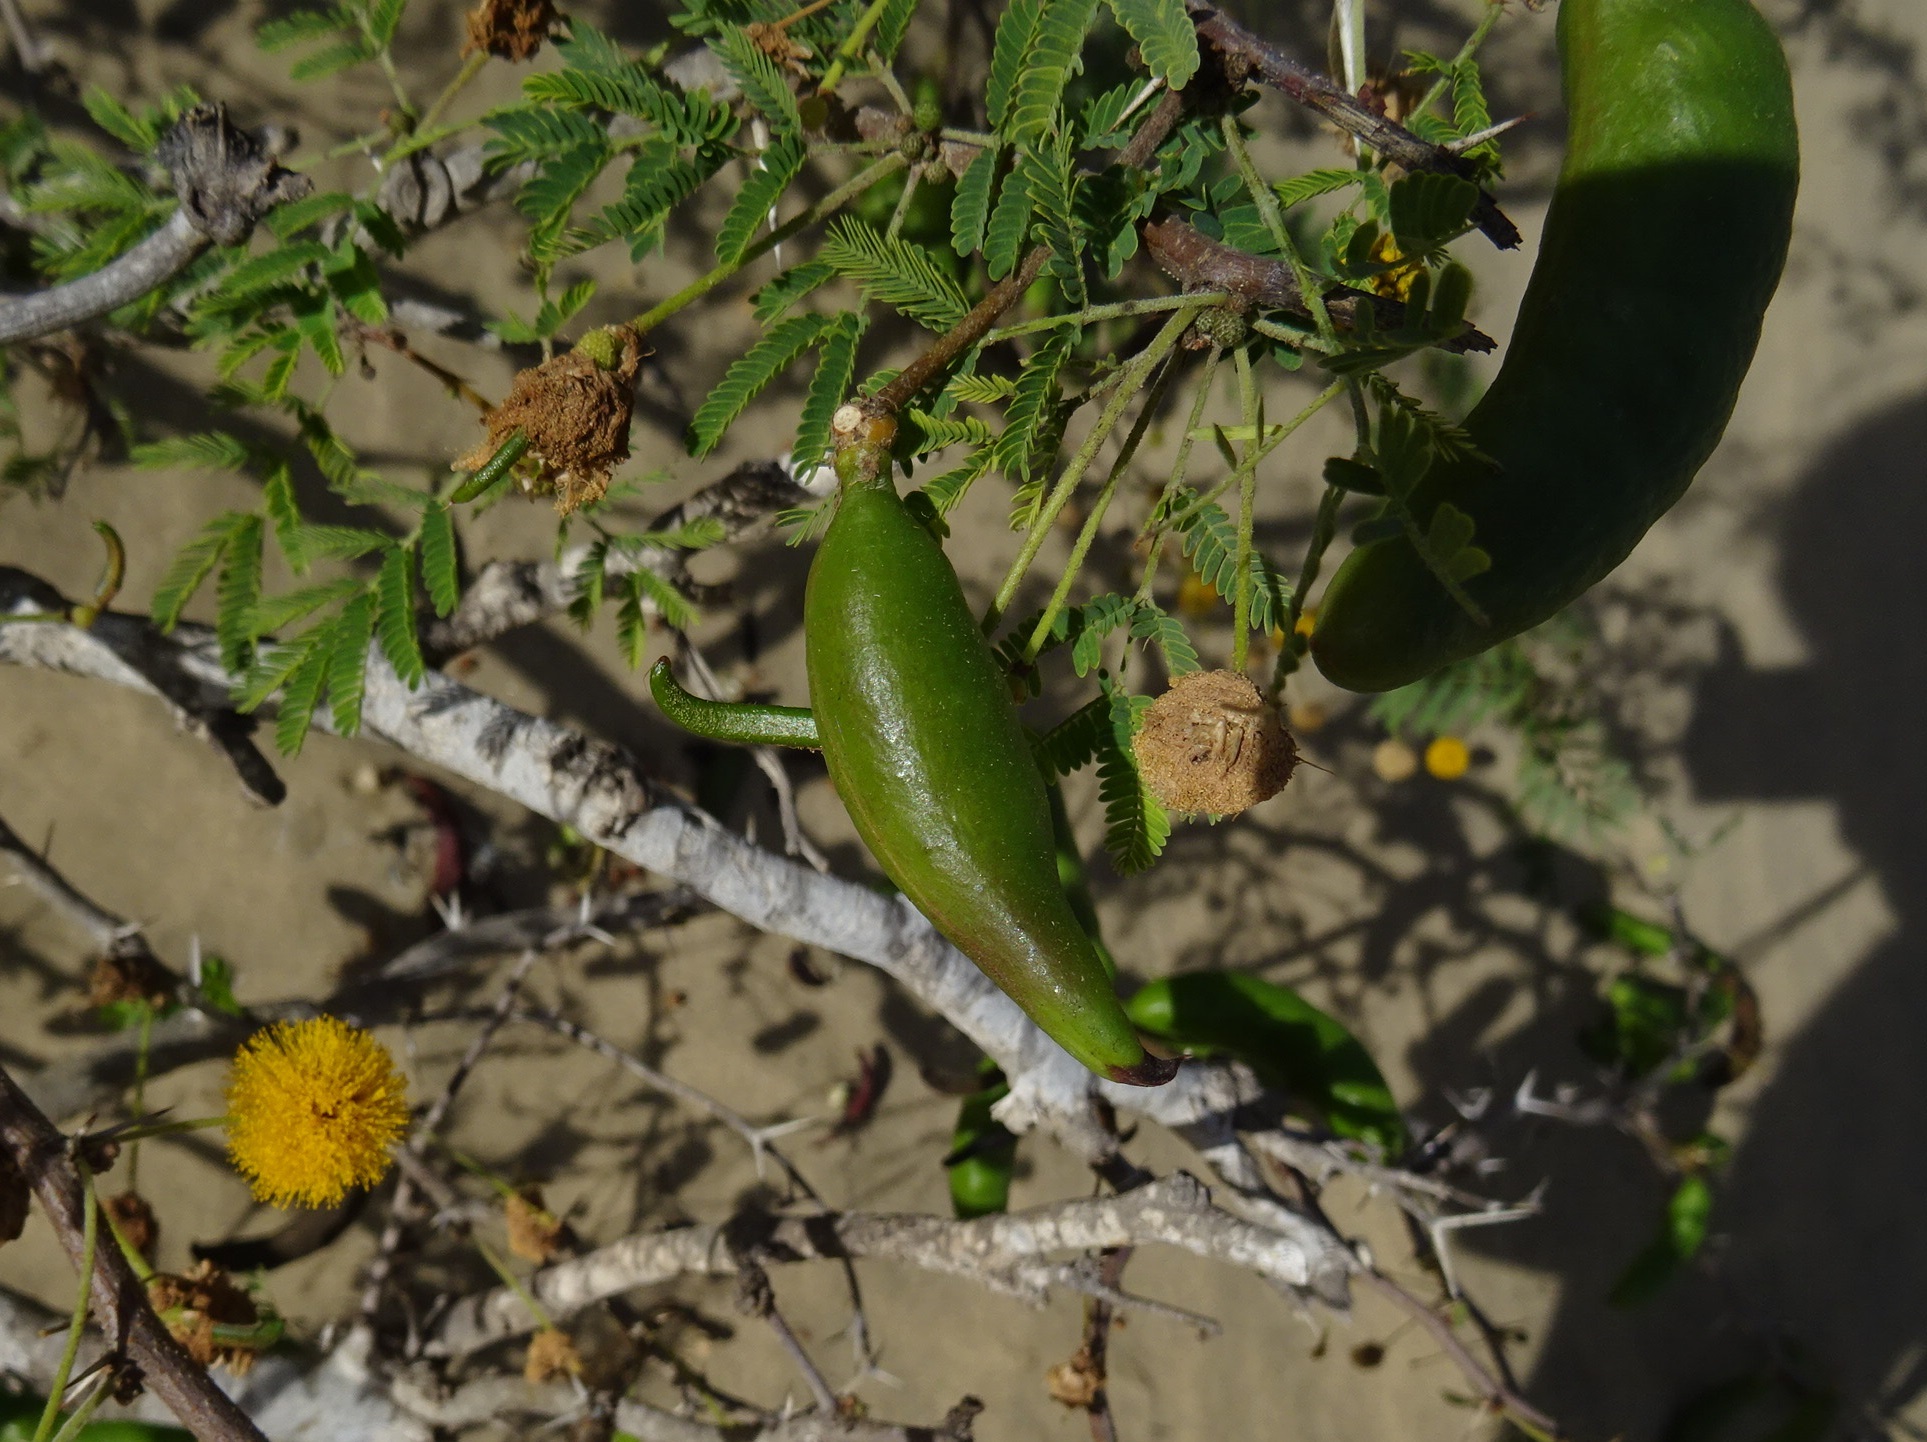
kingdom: Plantae
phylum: Tracheophyta
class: Magnoliopsida
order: Fabales
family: Fabaceae
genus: Vachellia
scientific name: Vachellia farnesiana
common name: Sweet acacia
